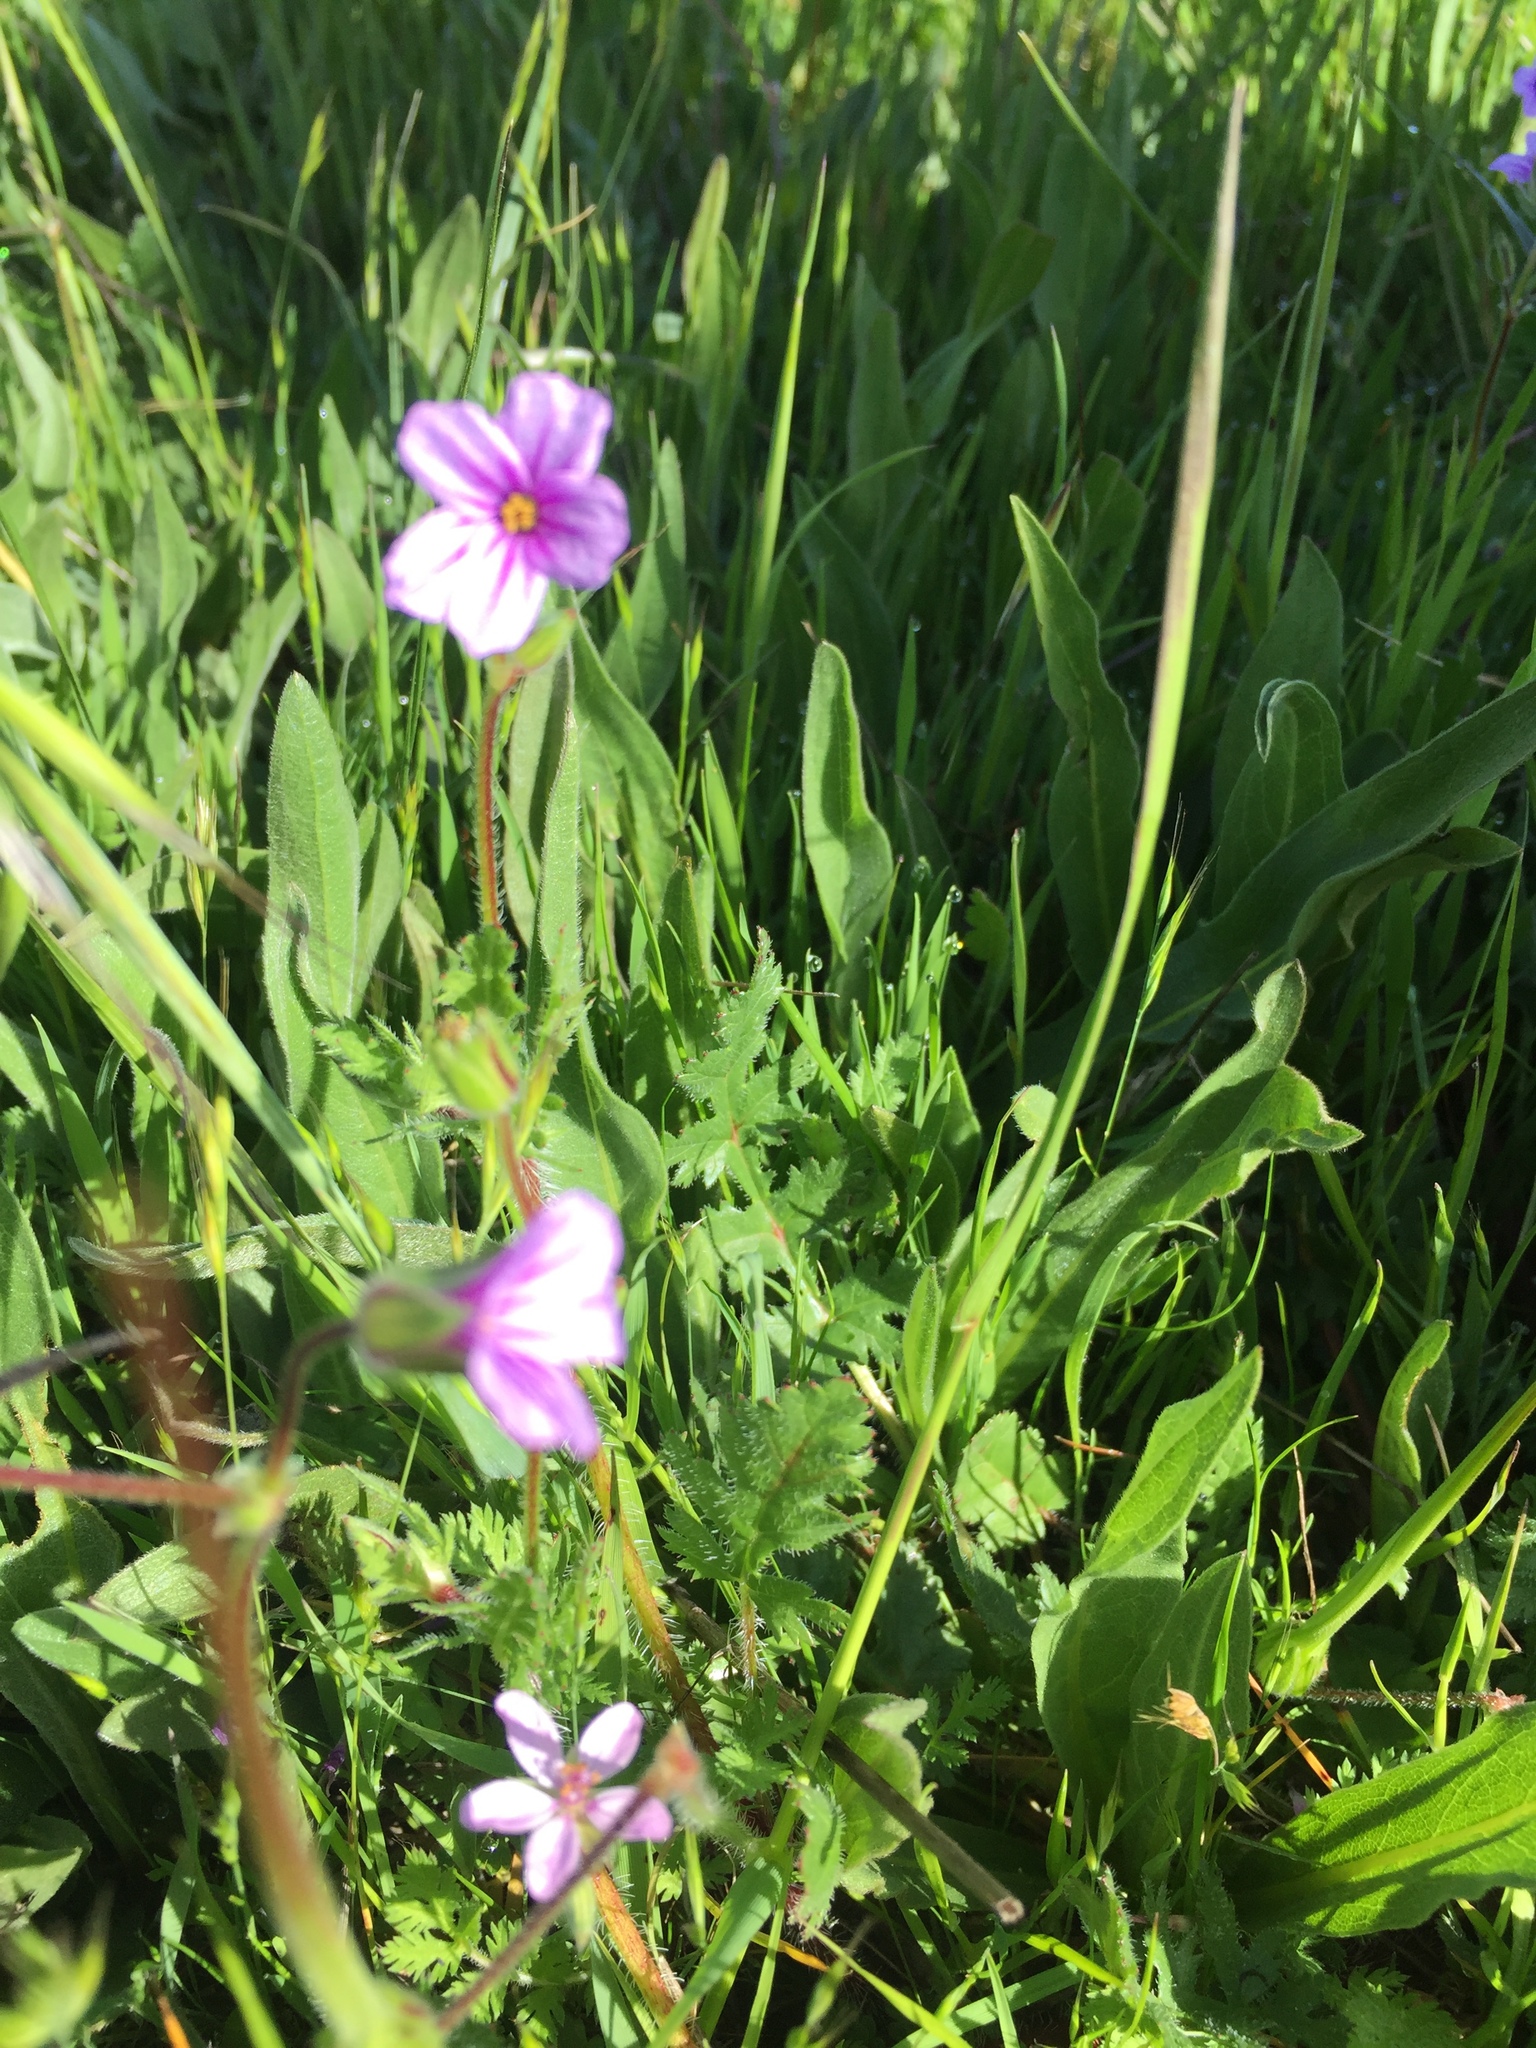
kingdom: Plantae
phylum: Tracheophyta
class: Magnoliopsida
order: Geraniales
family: Geraniaceae
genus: Erodium
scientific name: Erodium botrys
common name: Mediterranean stork's-bill
